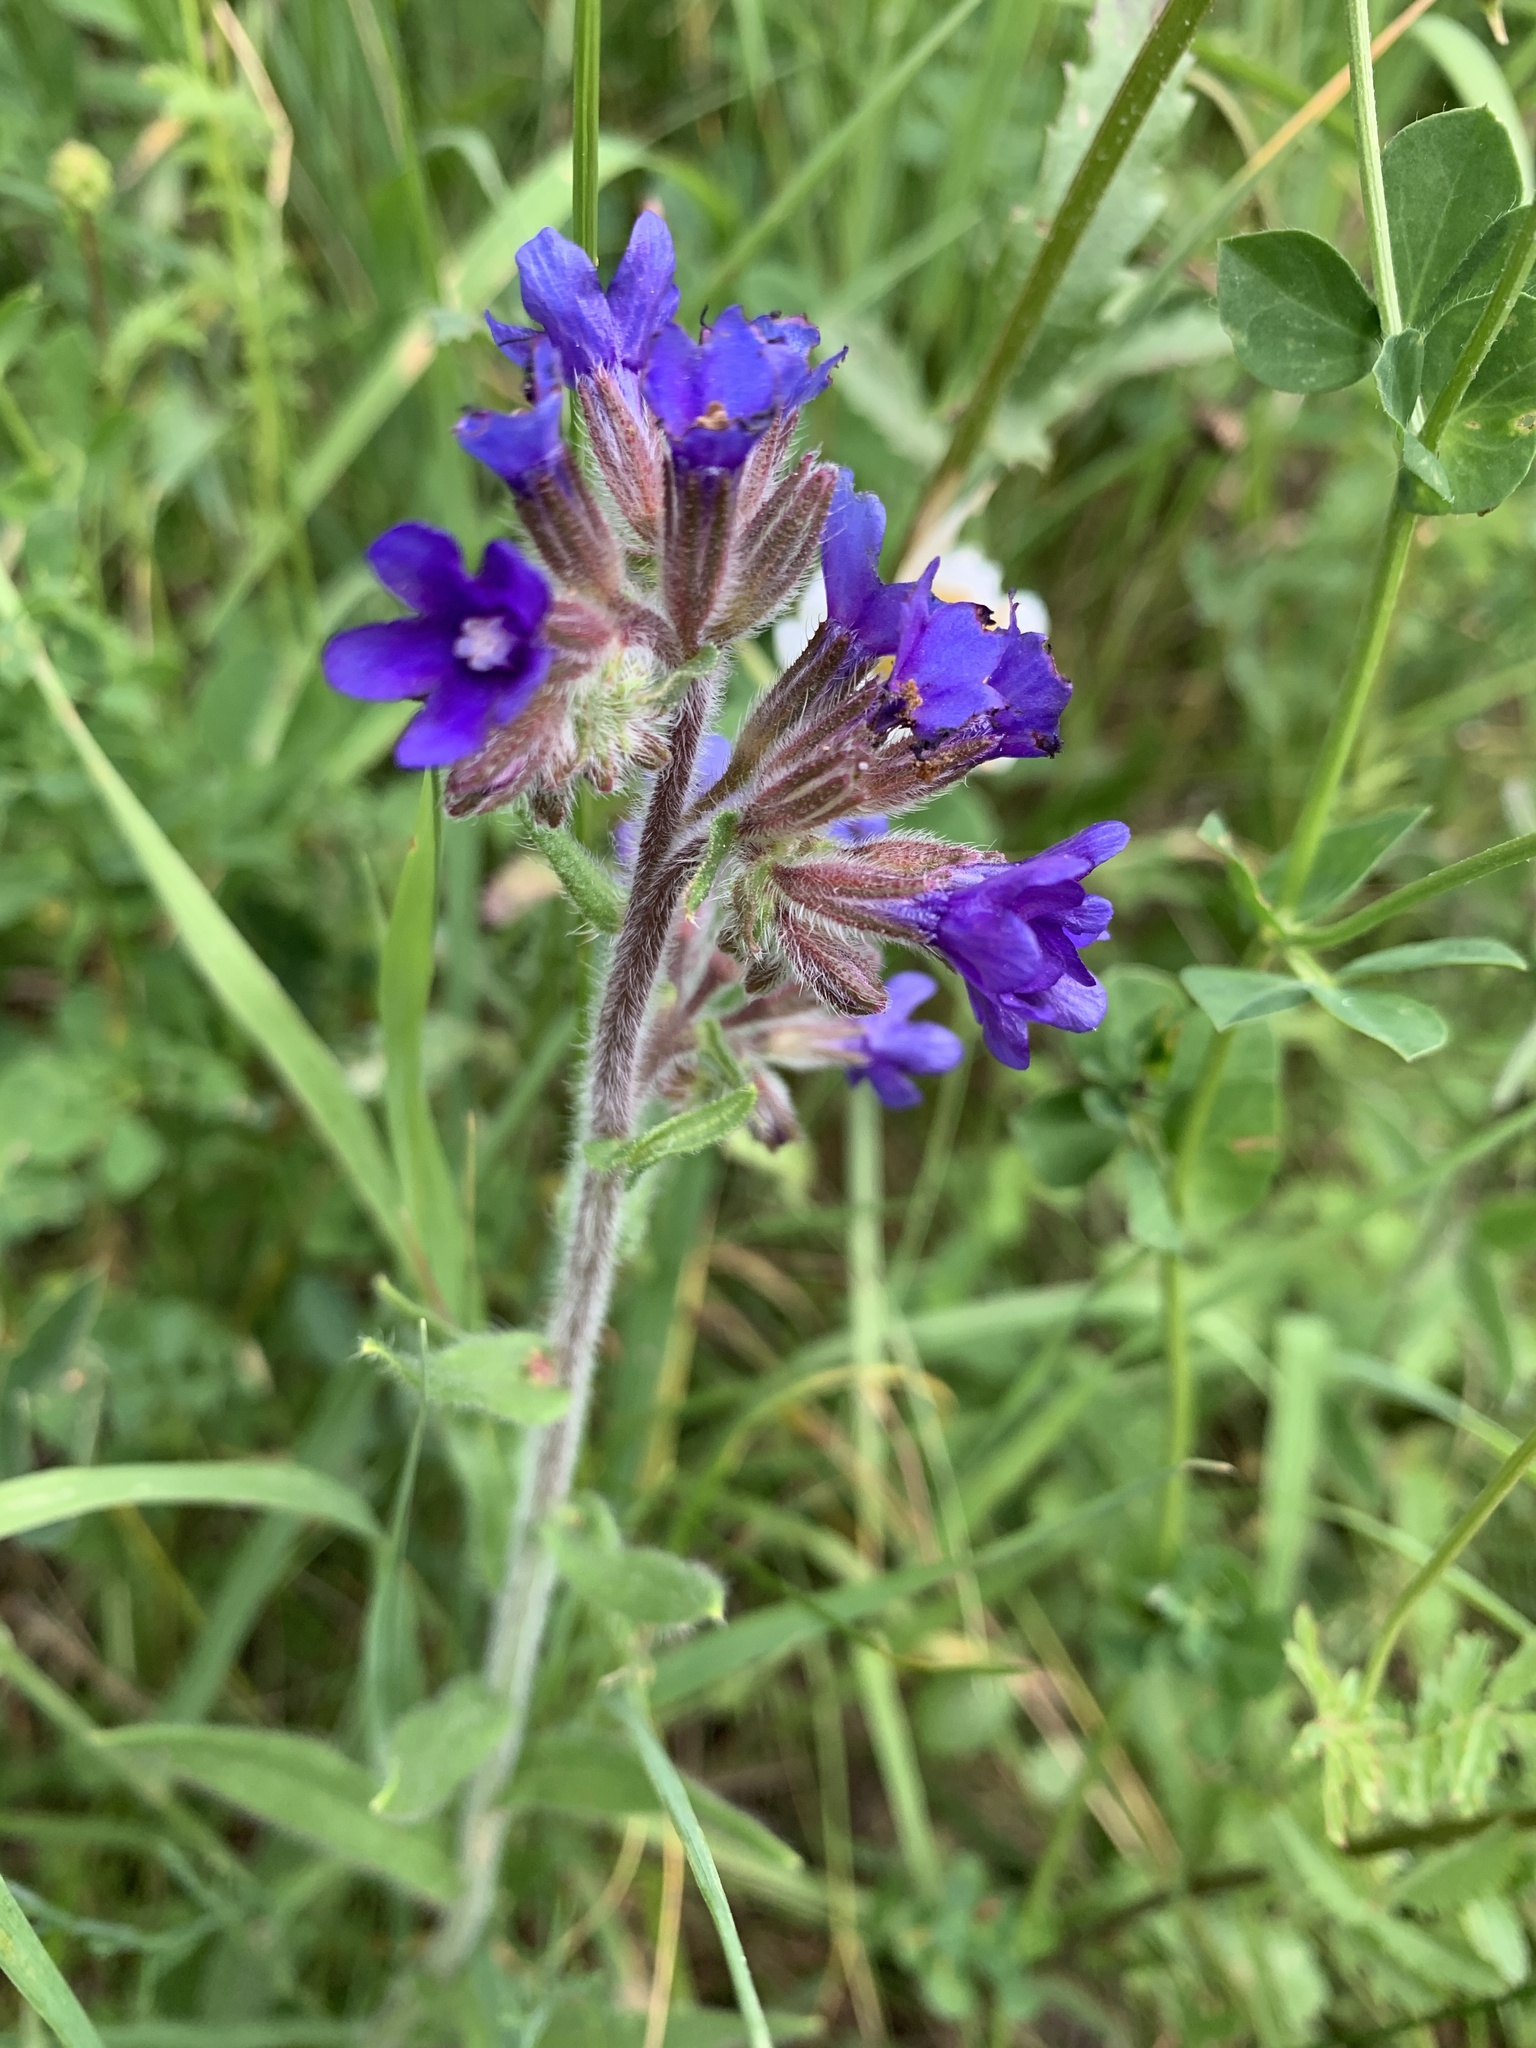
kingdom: Plantae
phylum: Tracheophyta
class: Magnoliopsida
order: Boraginales
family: Boraginaceae
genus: Anchusa
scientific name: Anchusa officinalis
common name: Alkanet
